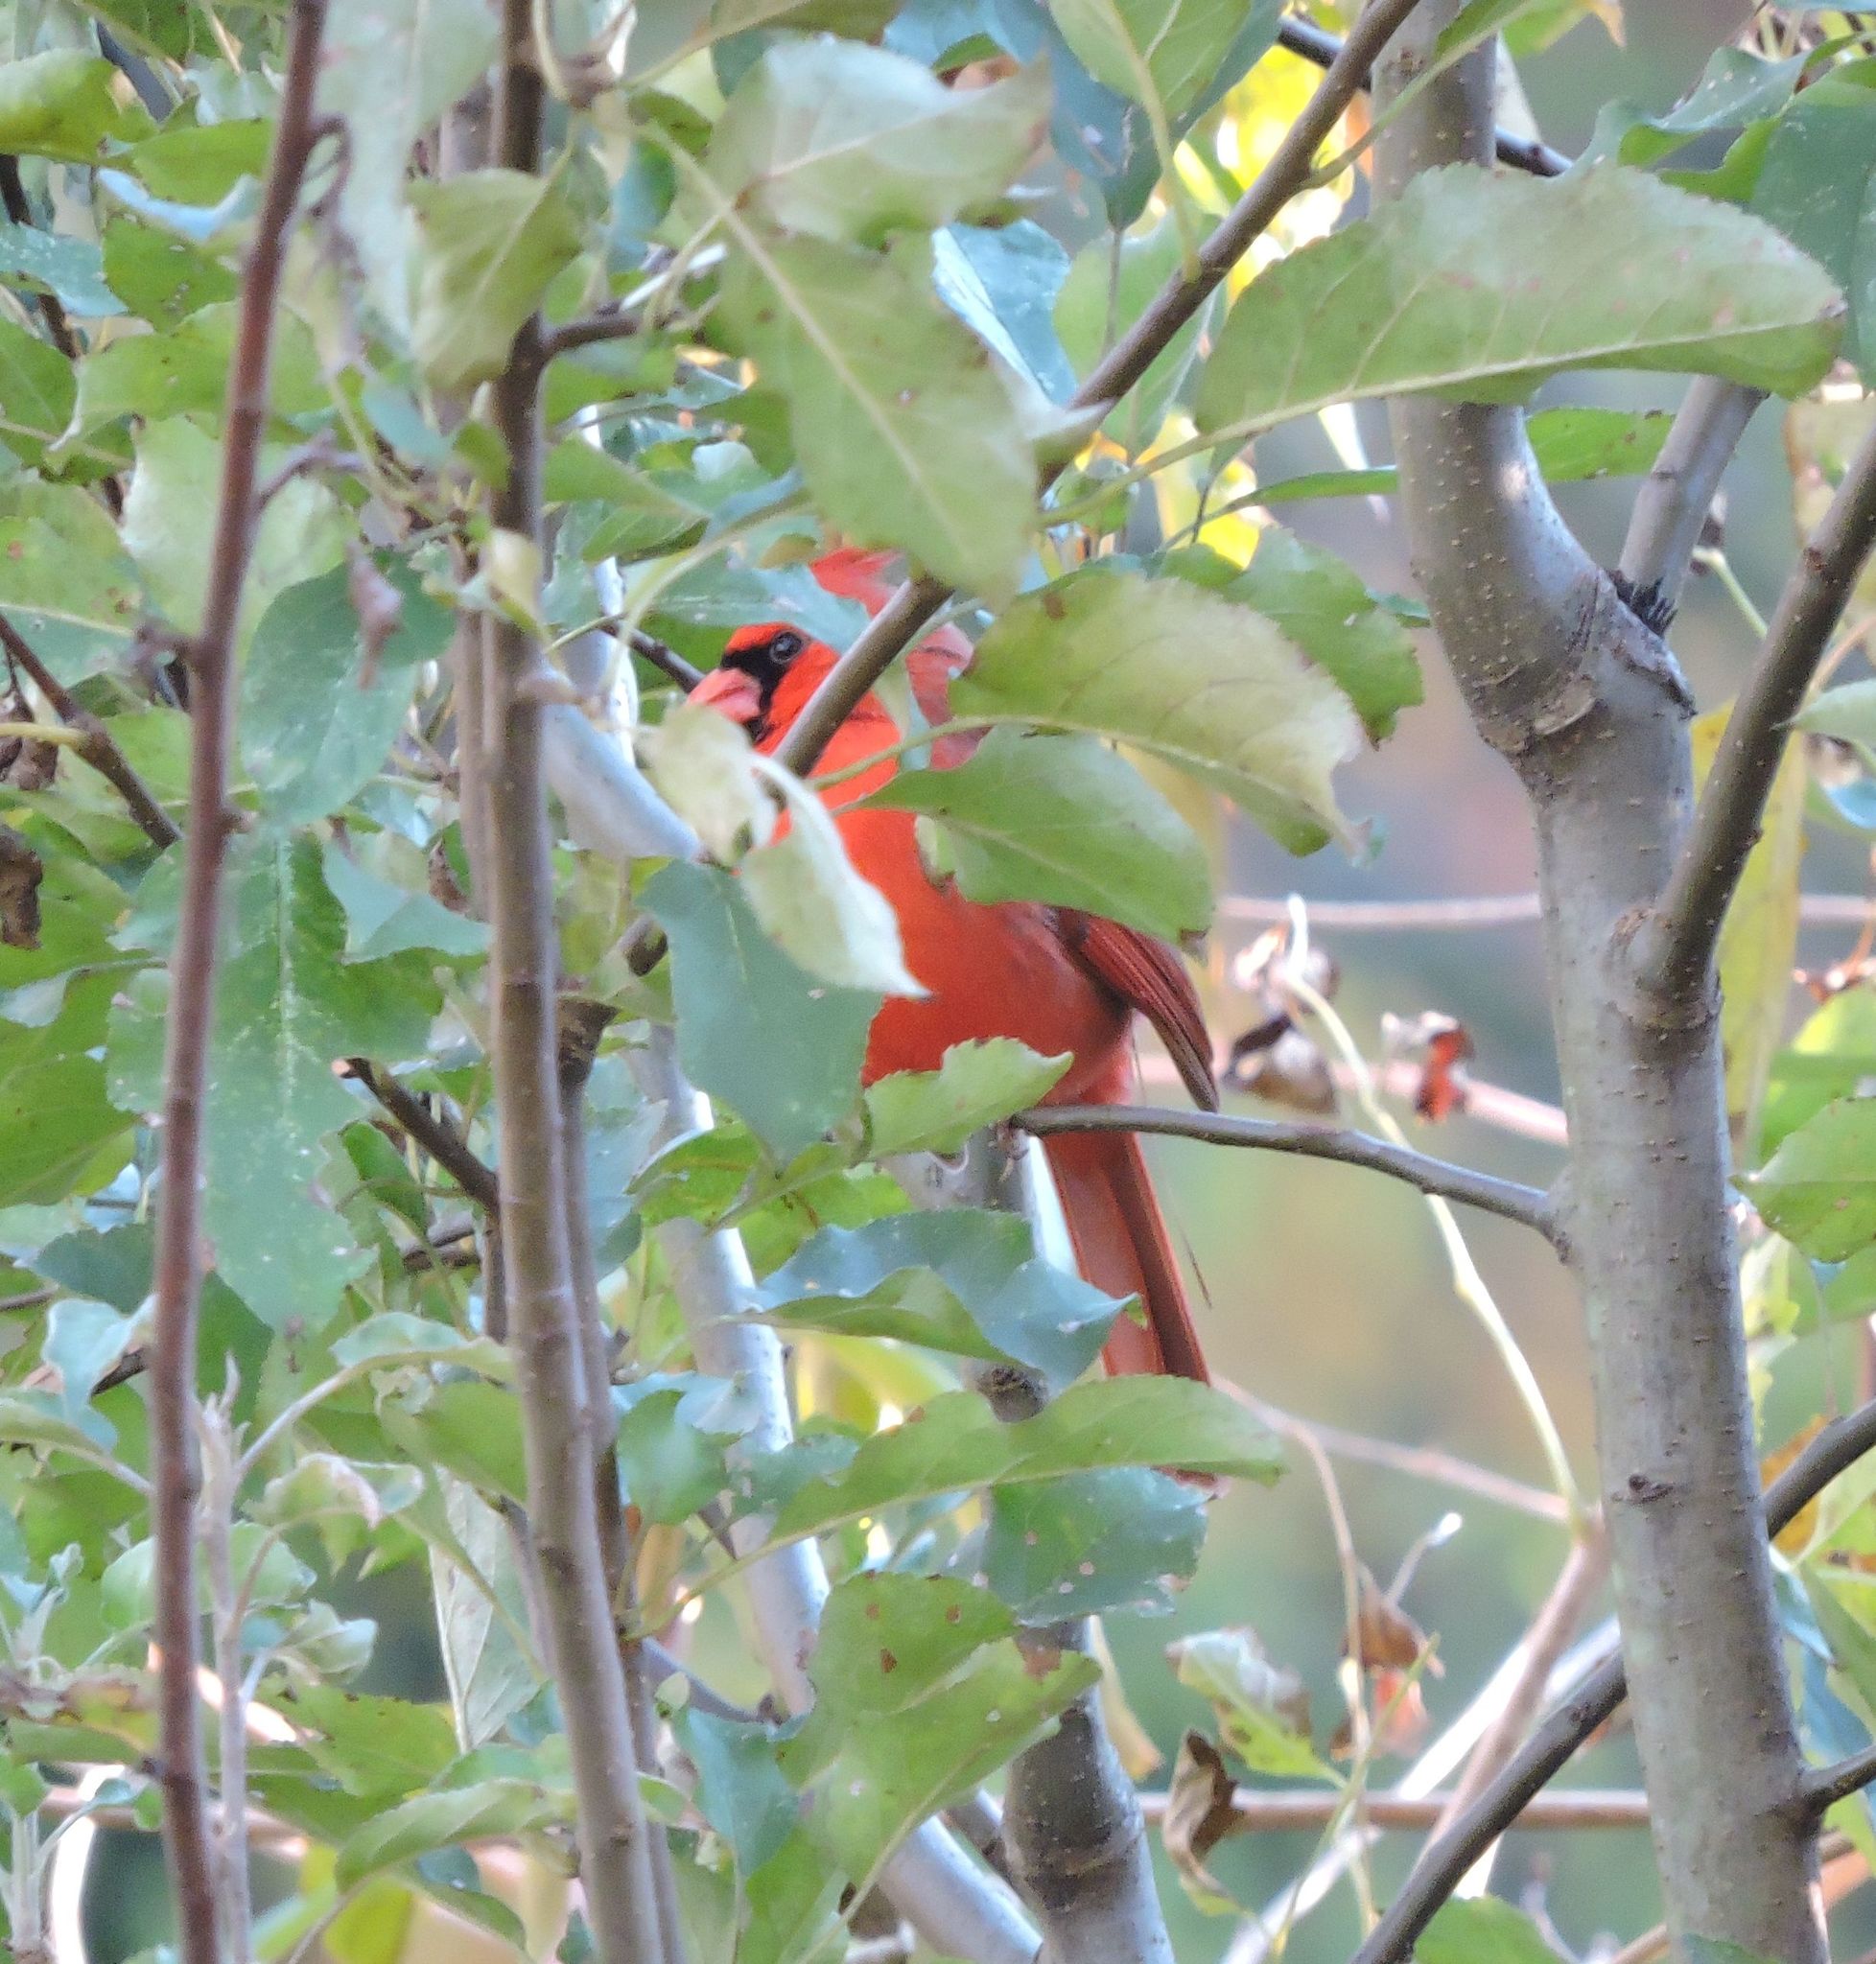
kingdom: Animalia
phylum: Chordata
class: Aves
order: Passeriformes
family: Cardinalidae
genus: Cardinalis
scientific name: Cardinalis cardinalis
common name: Northern cardinal
